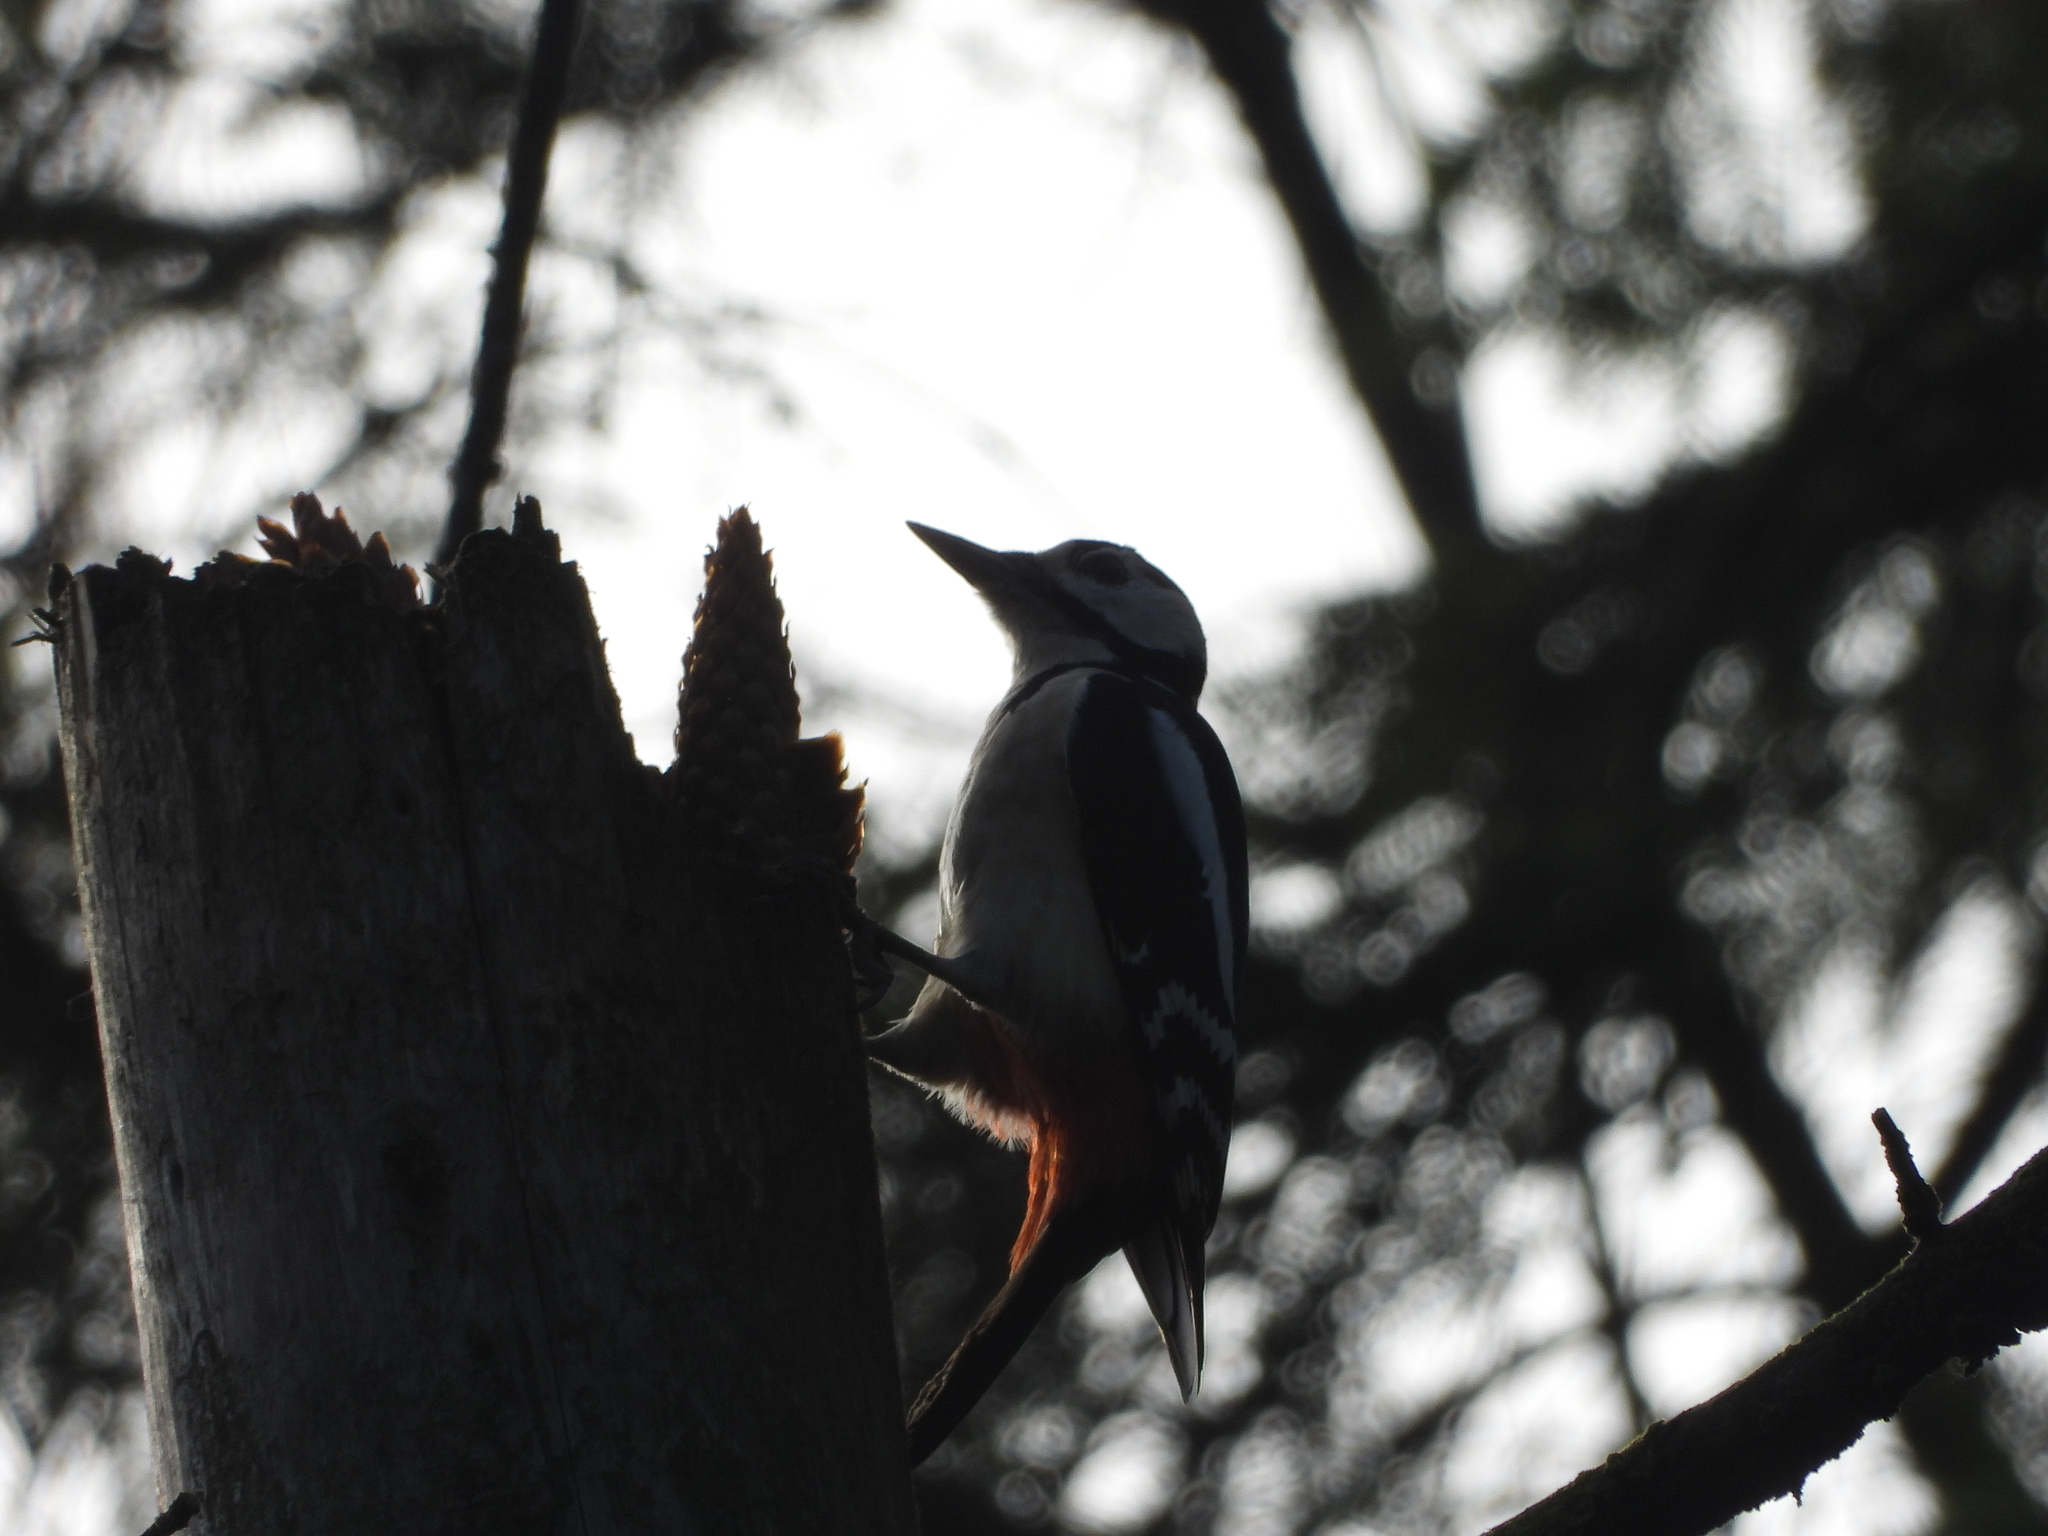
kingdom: Animalia
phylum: Chordata
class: Aves
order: Piciformes
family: Picidae
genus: Dendrocopos
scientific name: Dendrocopos major
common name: Great spotted woodpecker
